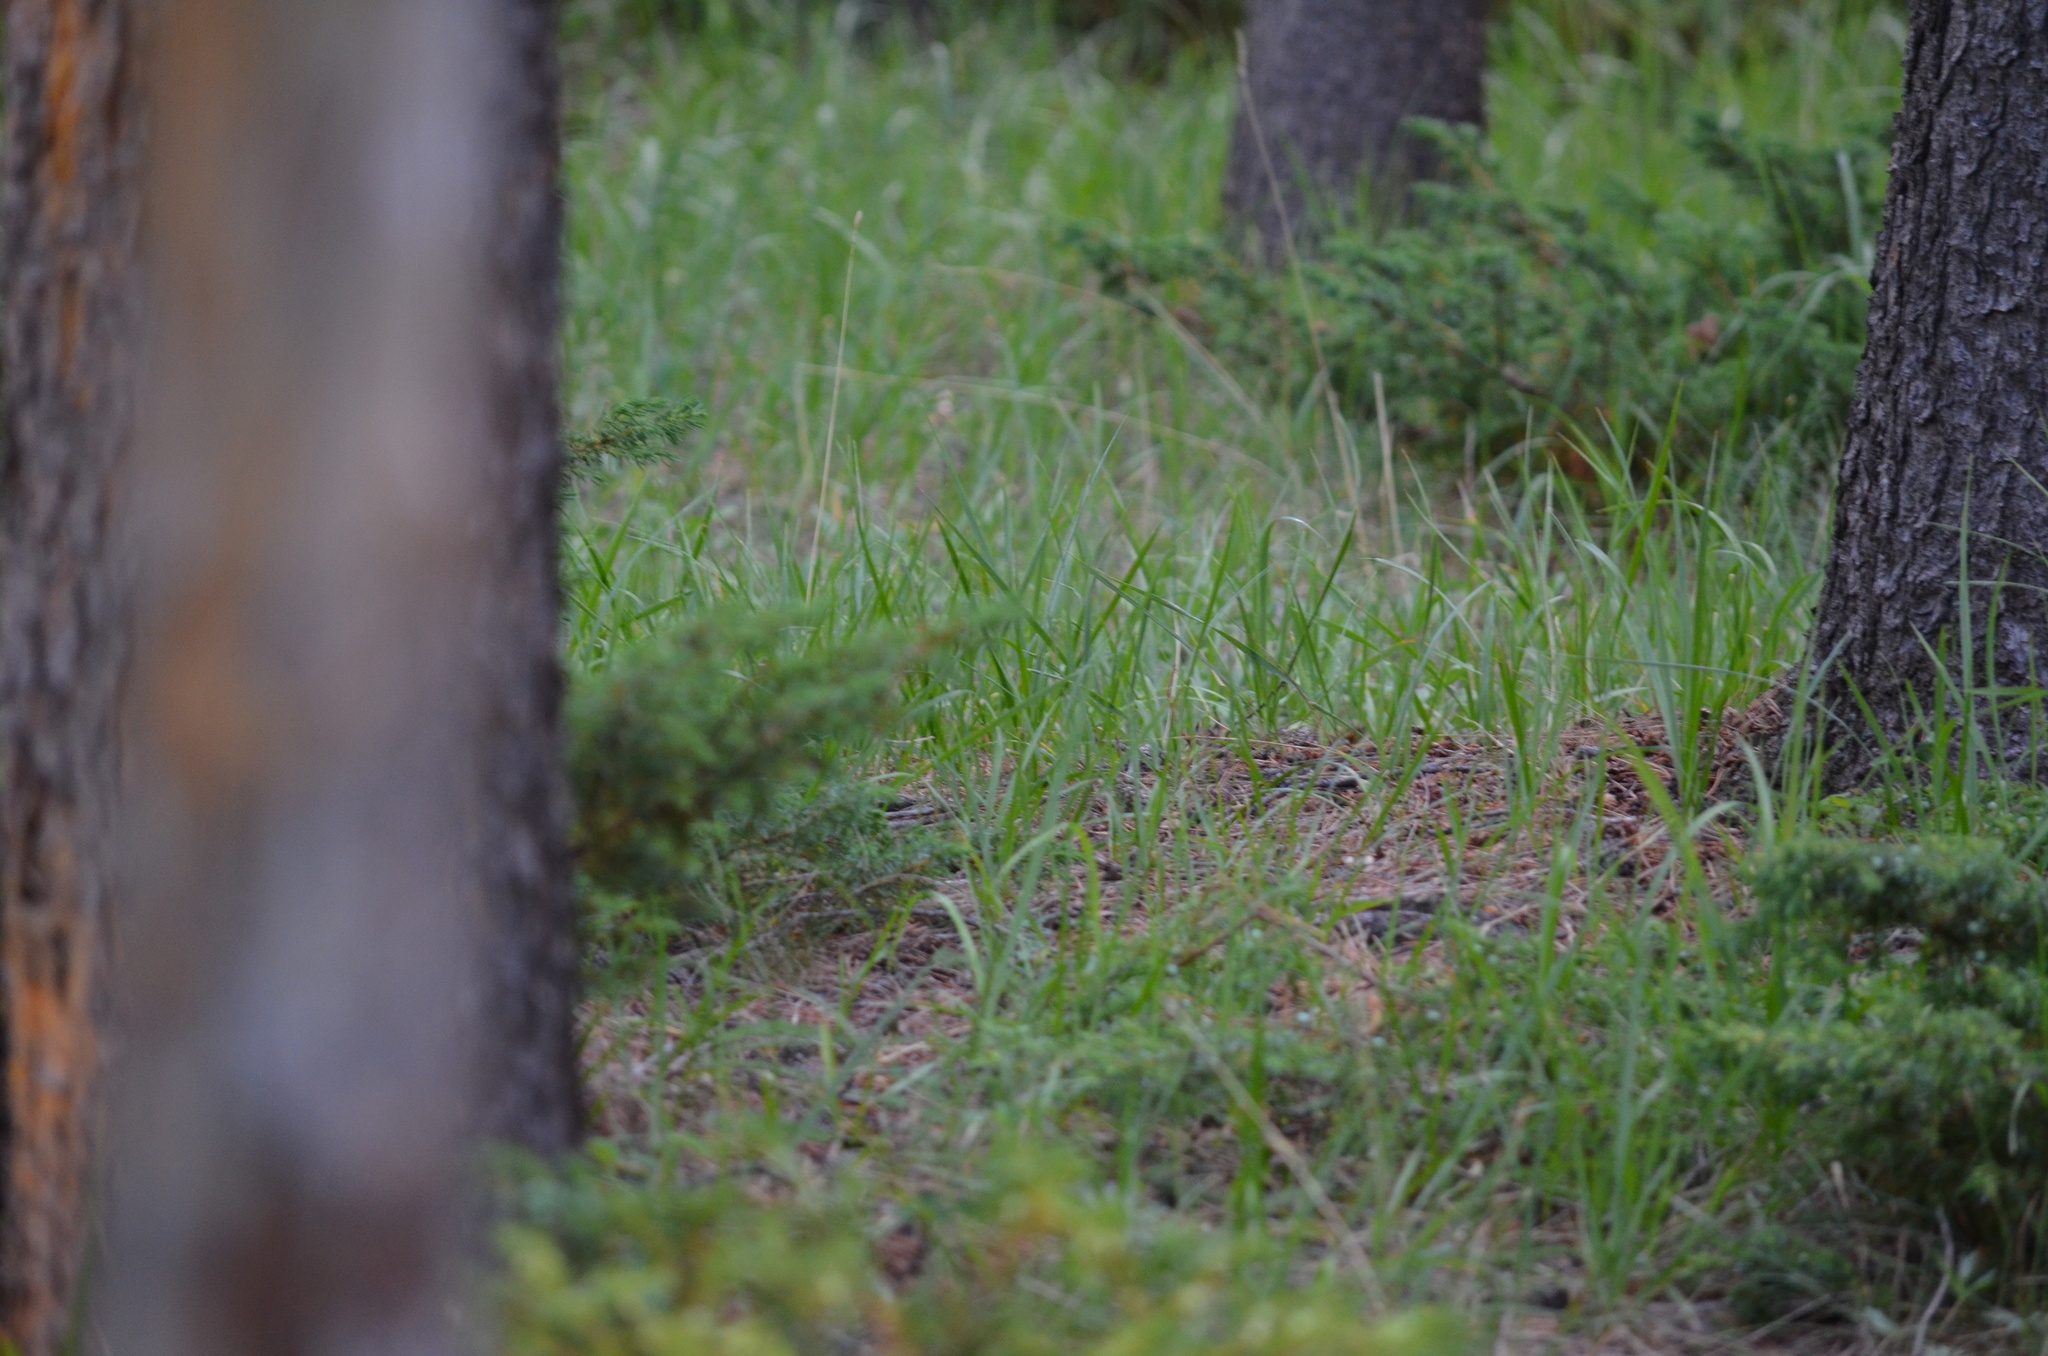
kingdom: Plantae
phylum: Tracheophyta
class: Pinopsida
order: Pinales
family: Cupressaceae
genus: Juniperus
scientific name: Juniperus communis
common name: Common juniper
